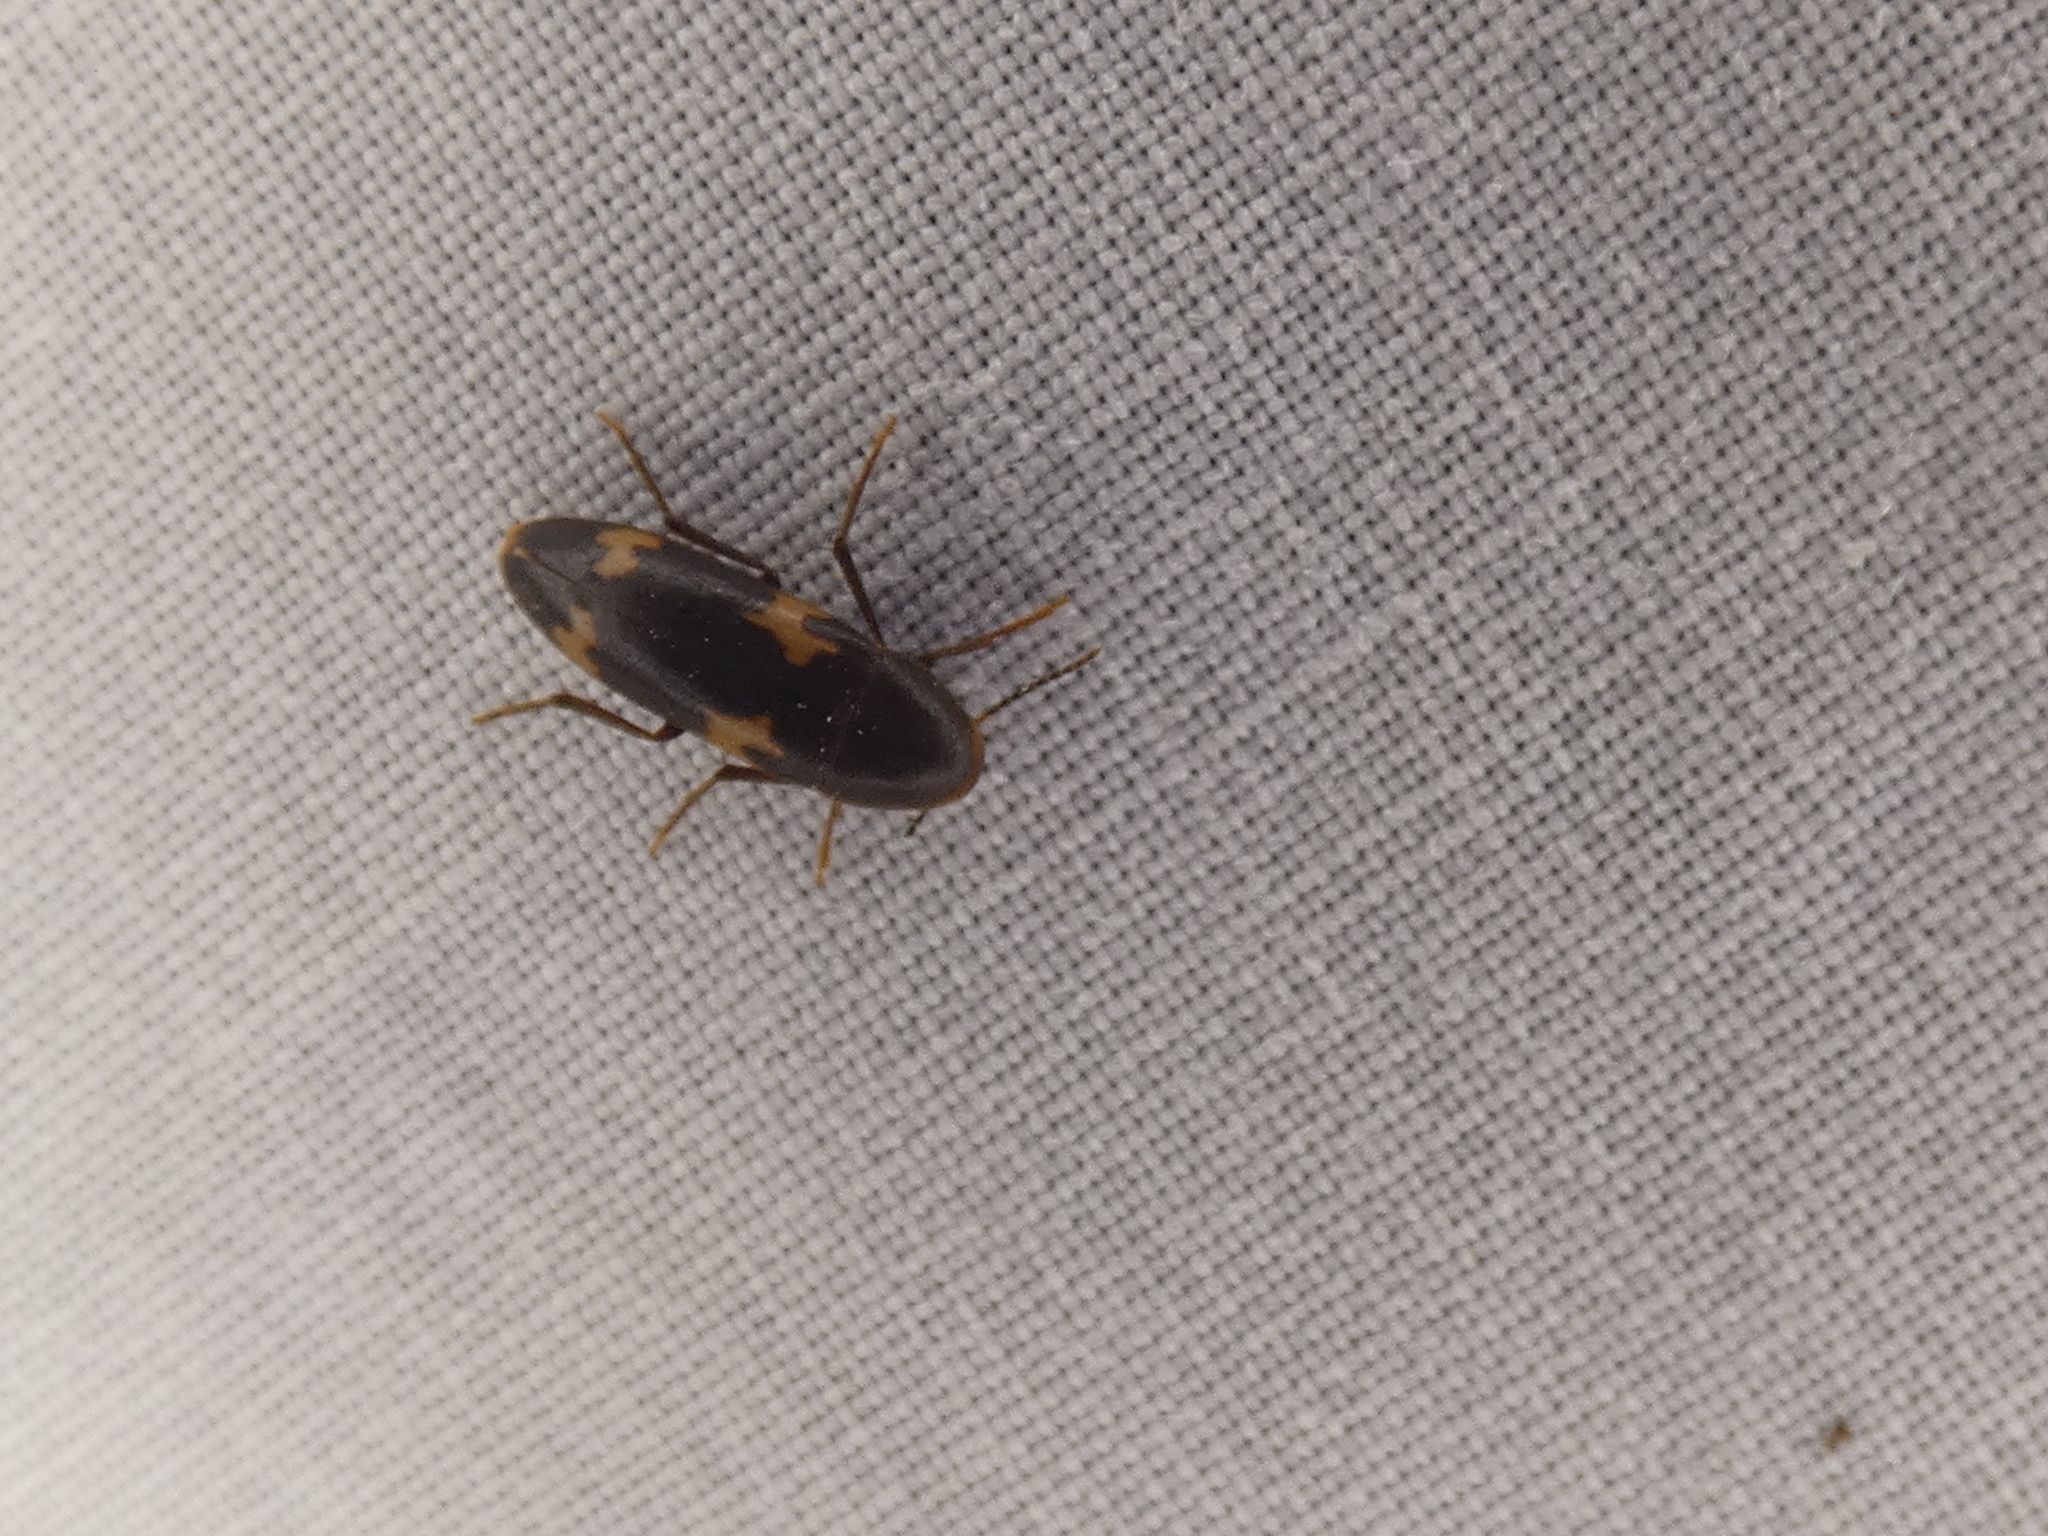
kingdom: Animalia
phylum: Arthropoda
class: Insecta
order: Coleoptera
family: Melandryidae
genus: Dircaea
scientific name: Dircaea liturata
